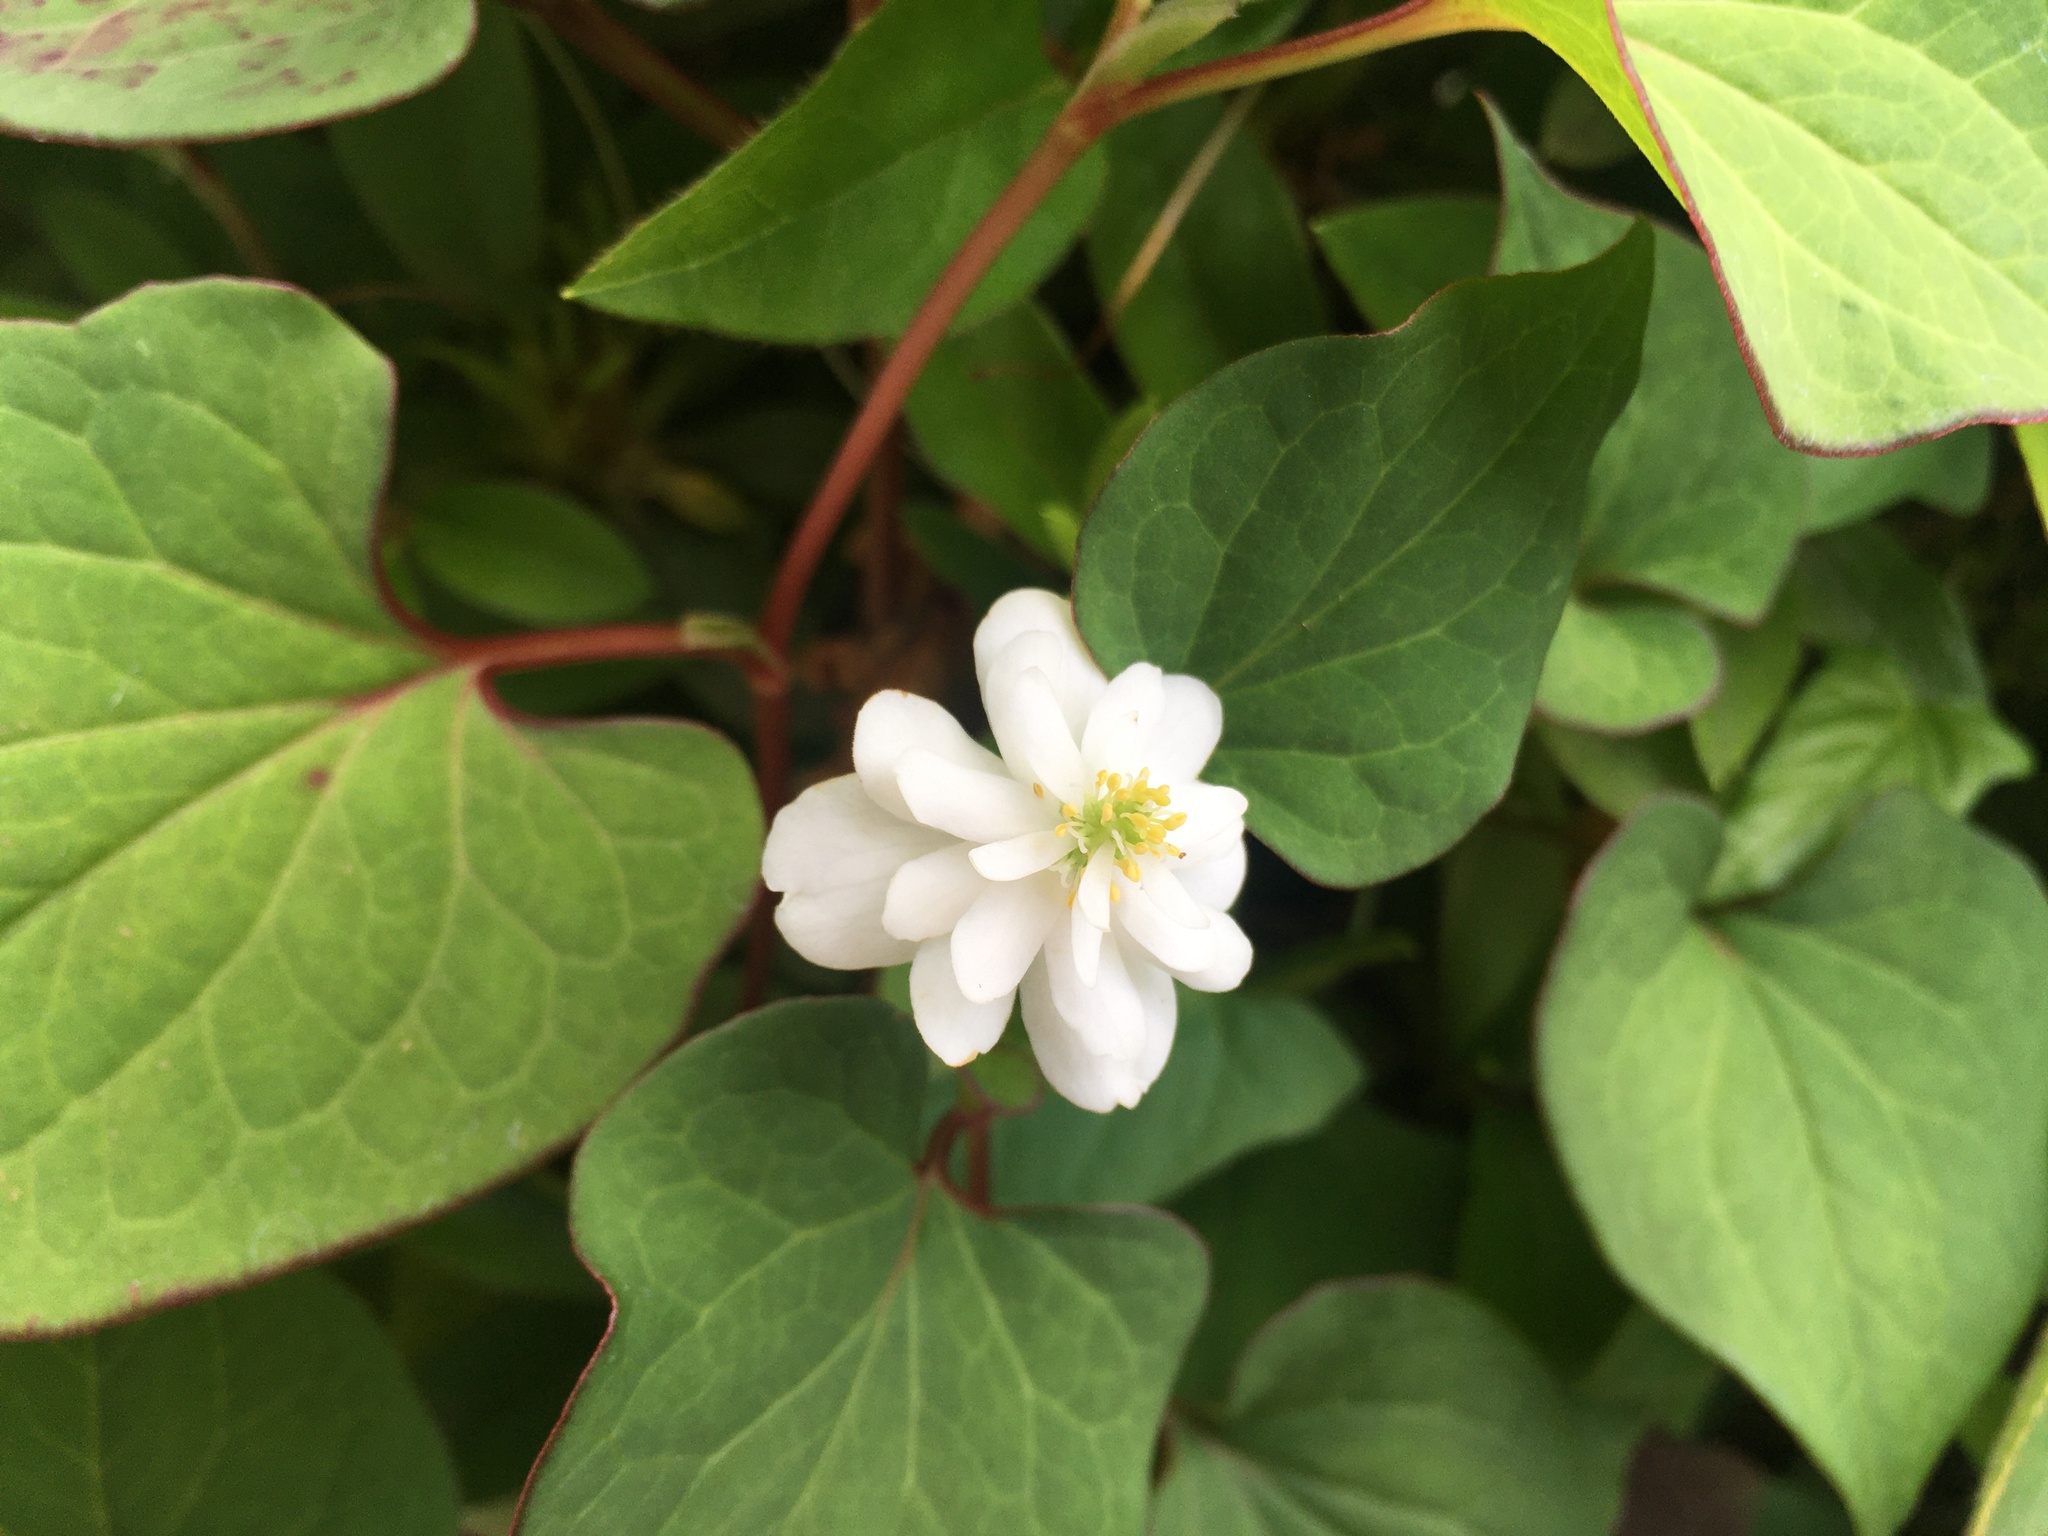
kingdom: Plantae
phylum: Tracheophyta
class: Magnoliopsida
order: Piperales
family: Saururaceae
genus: Houttuynia
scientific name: Houttuynia cordata
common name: Chameleon
